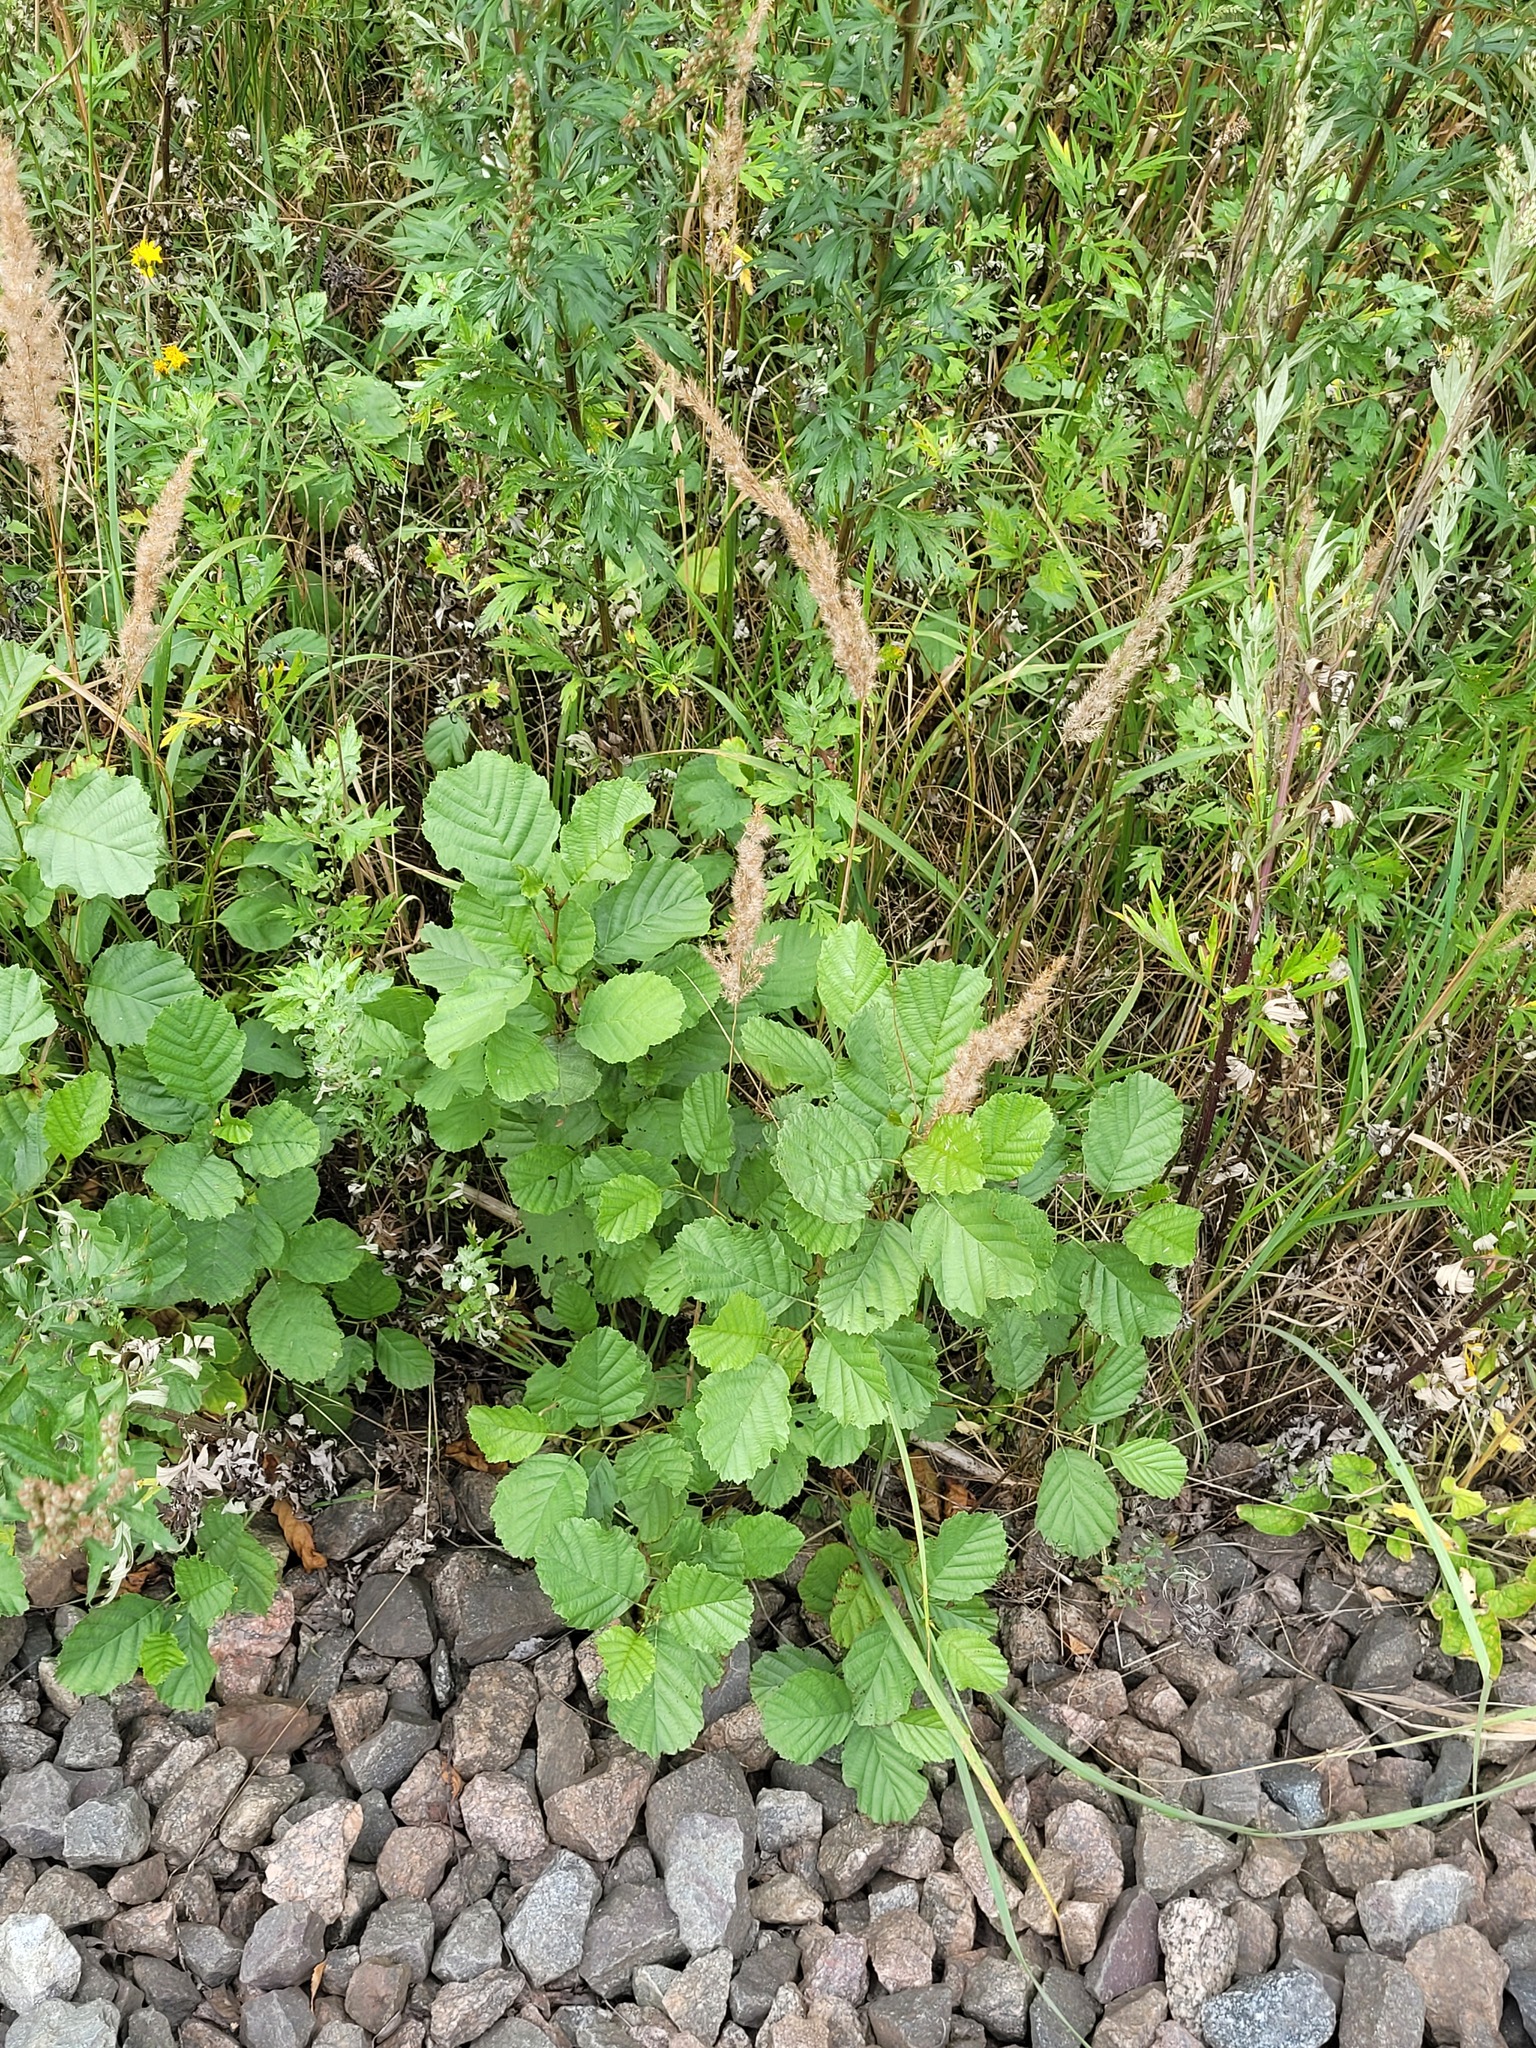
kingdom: Plantae
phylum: Tracheophyta
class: Magnoliopsida
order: Fagales
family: Betulaceae
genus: Alnus
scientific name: Alnus glutinosa
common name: Black alder
